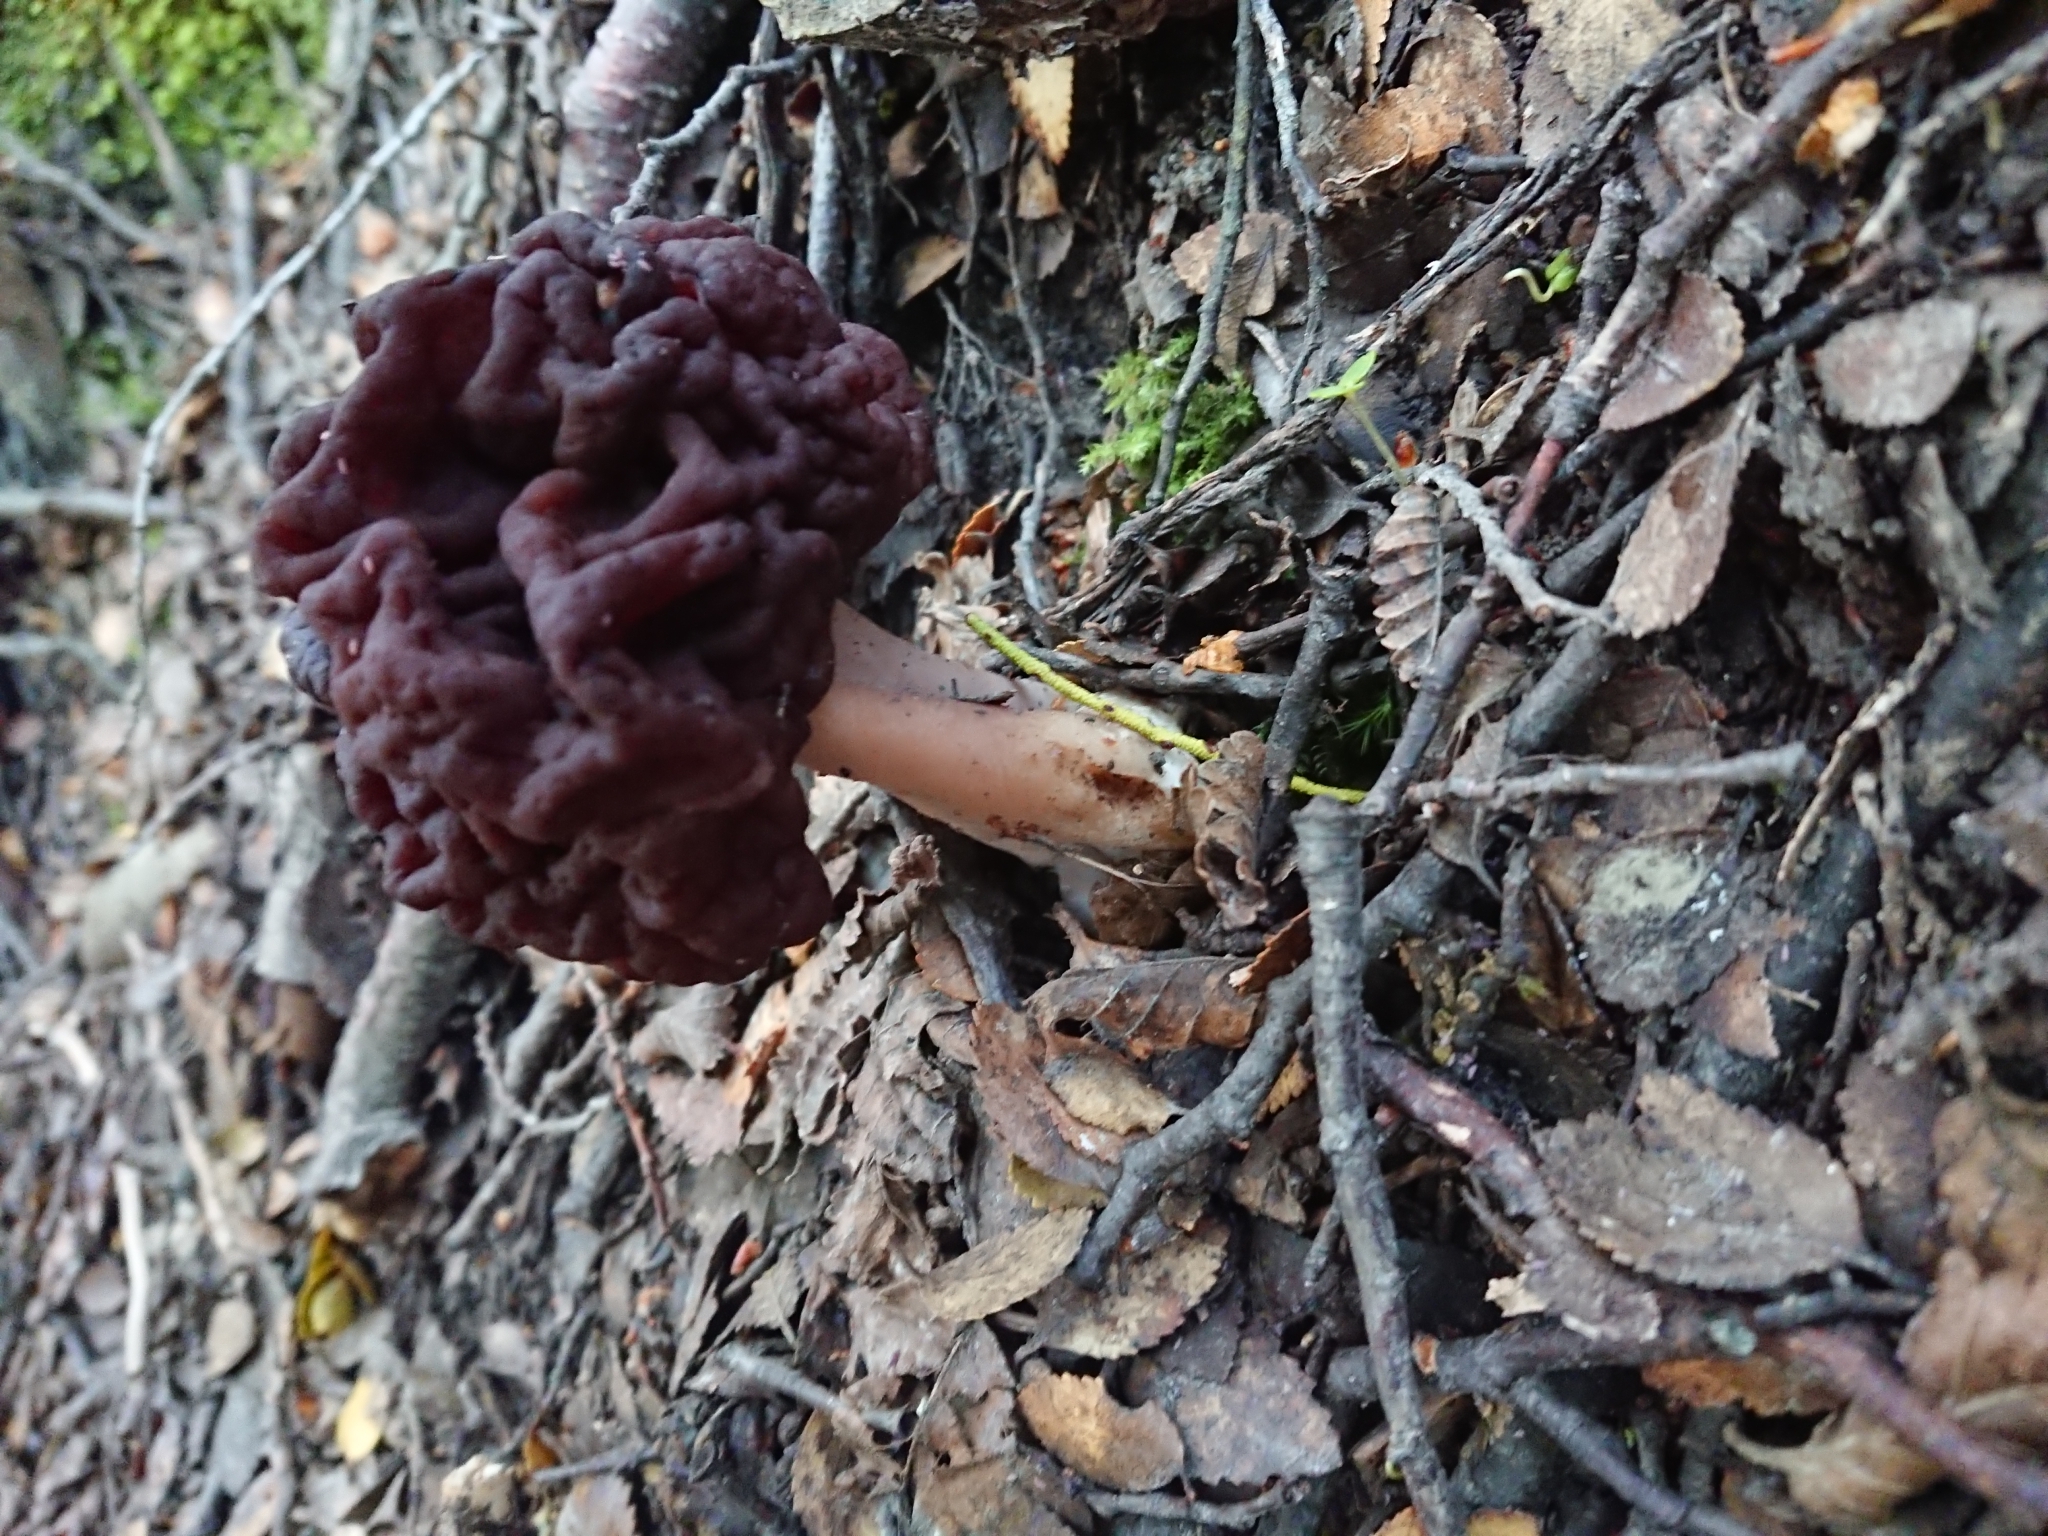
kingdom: Fungi
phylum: Ascomycota
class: Pezizomycetes
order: Pezizales
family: Discinaceae
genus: Gyromitra
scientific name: Gyromitra antarctica
